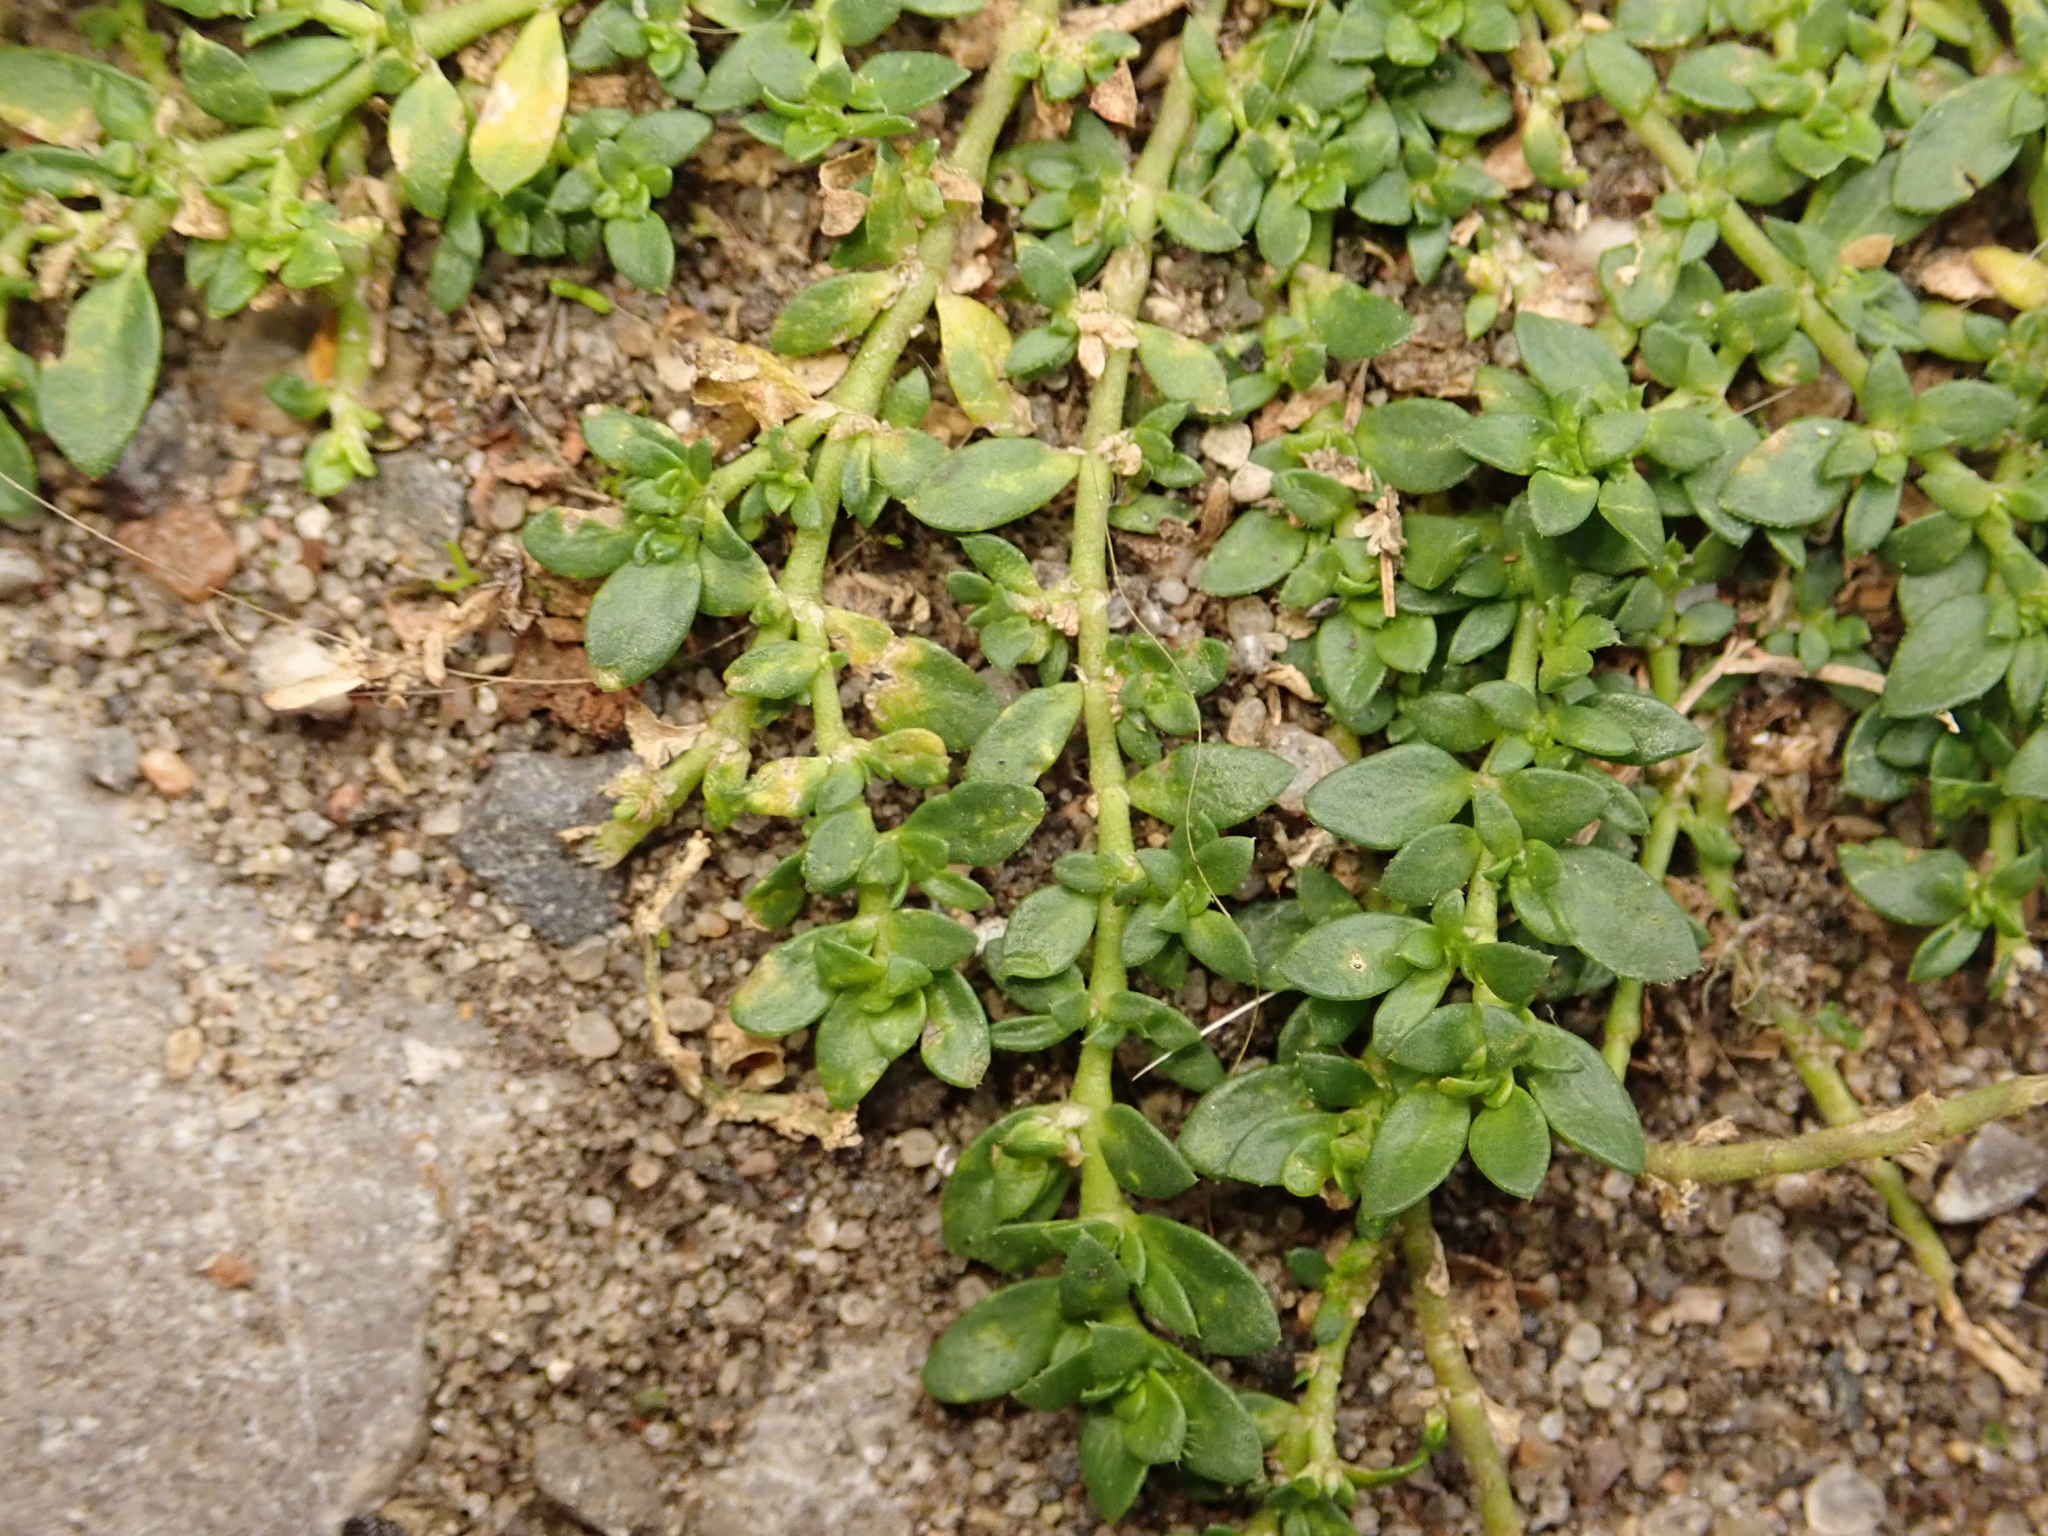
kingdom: Plantae
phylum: Tracheophyta
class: Magnoliopsida
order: Caryophyllales
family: Caryophyllaceae
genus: Herniaria
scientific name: Herniaria glabra
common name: Smooth rupturewort
